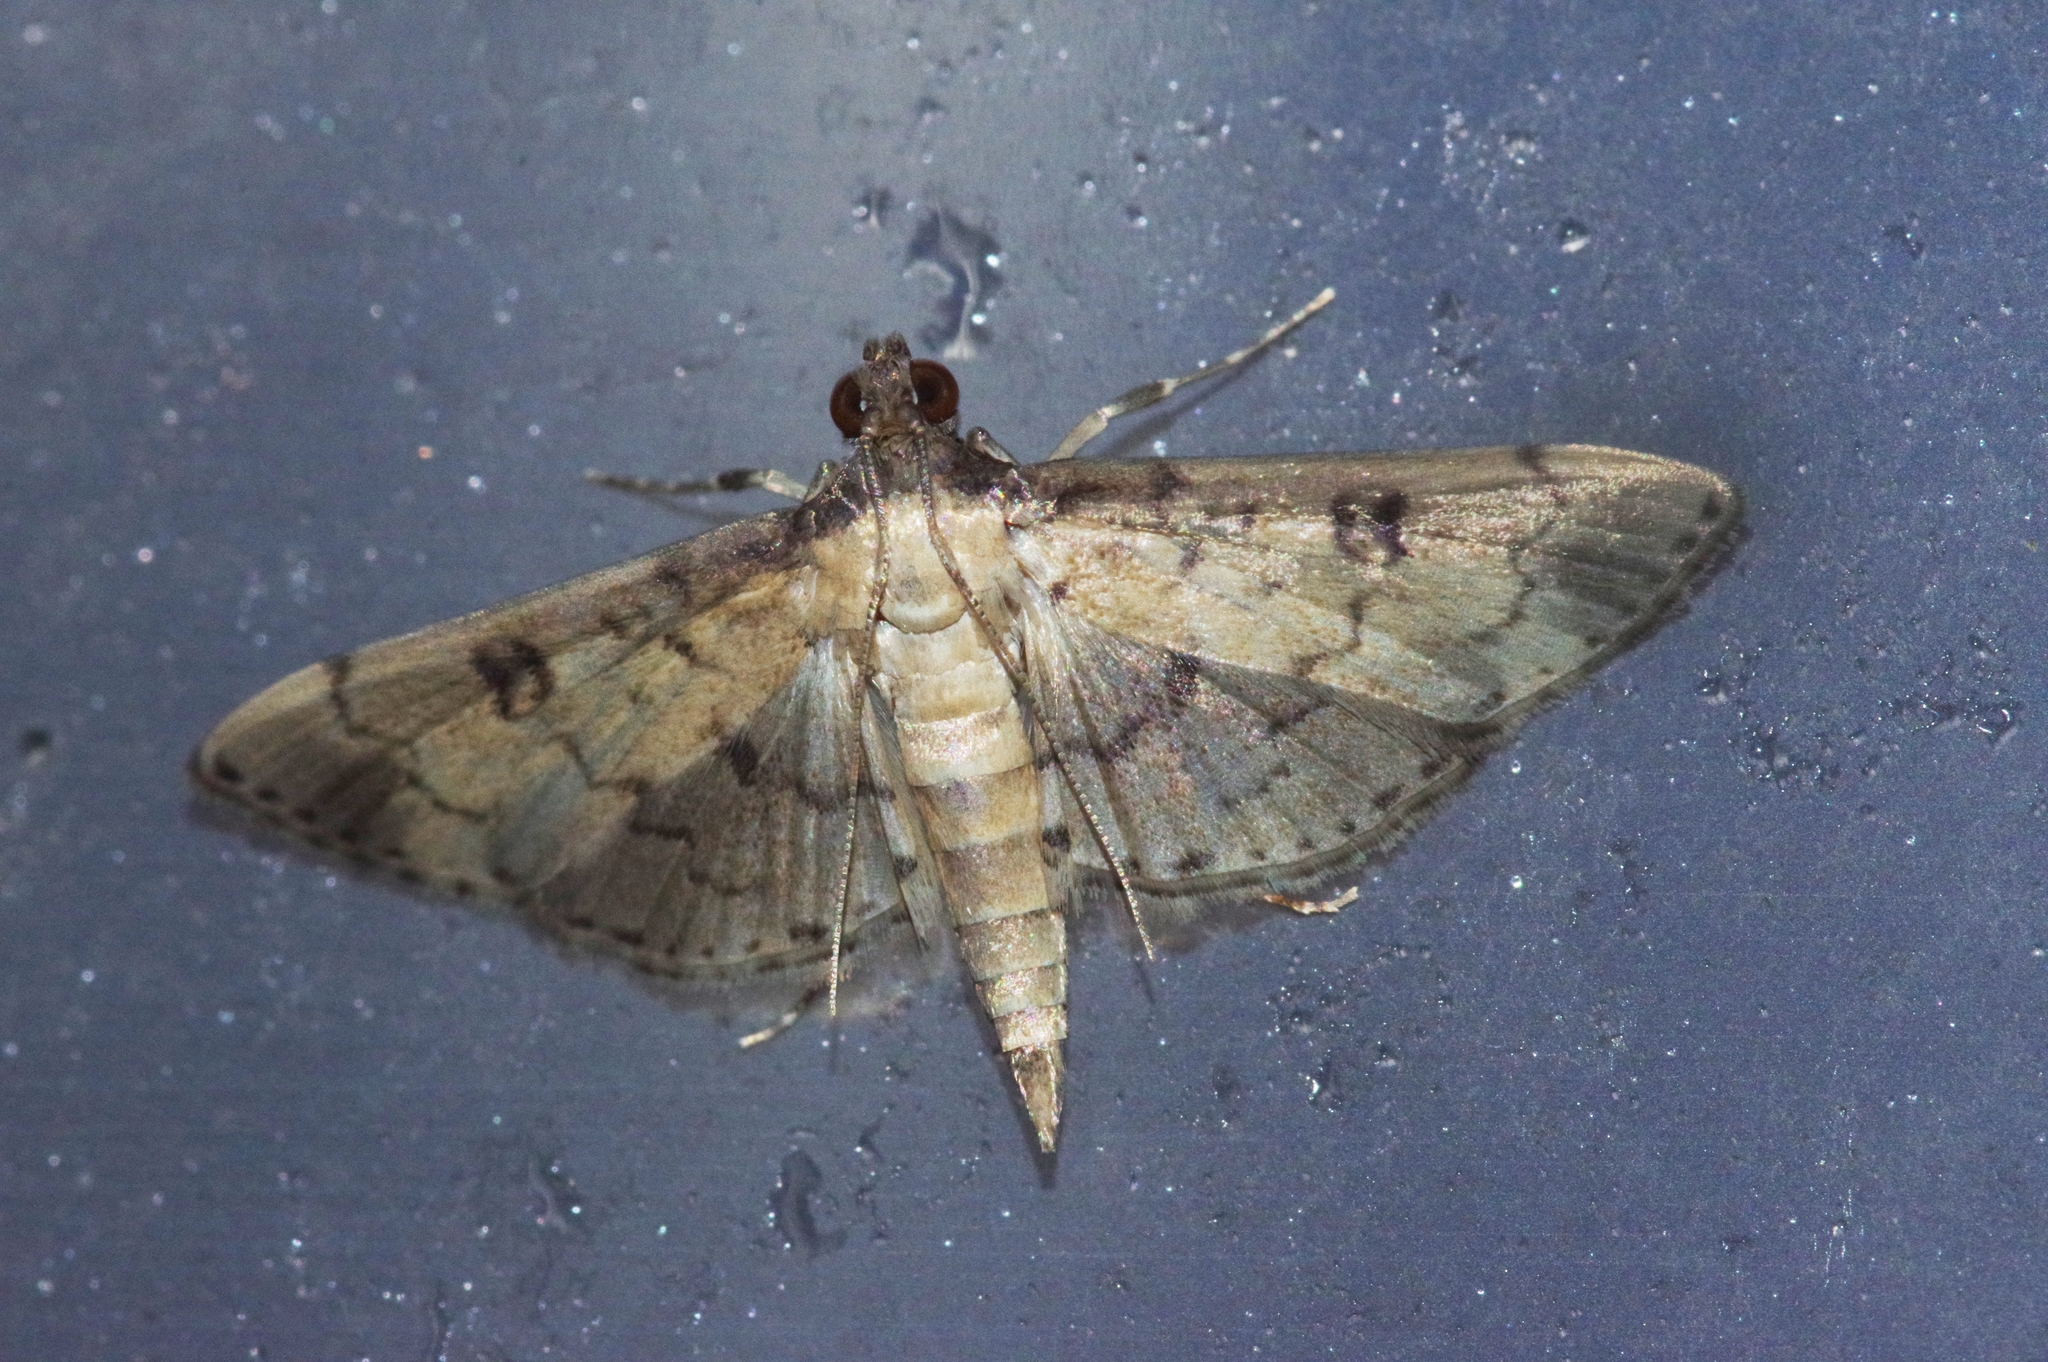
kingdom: Animalia
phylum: Arthropoda
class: Insecta
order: Lepidoptera
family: Crambidae
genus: Nacoleia
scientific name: Nacoleia charesalis
